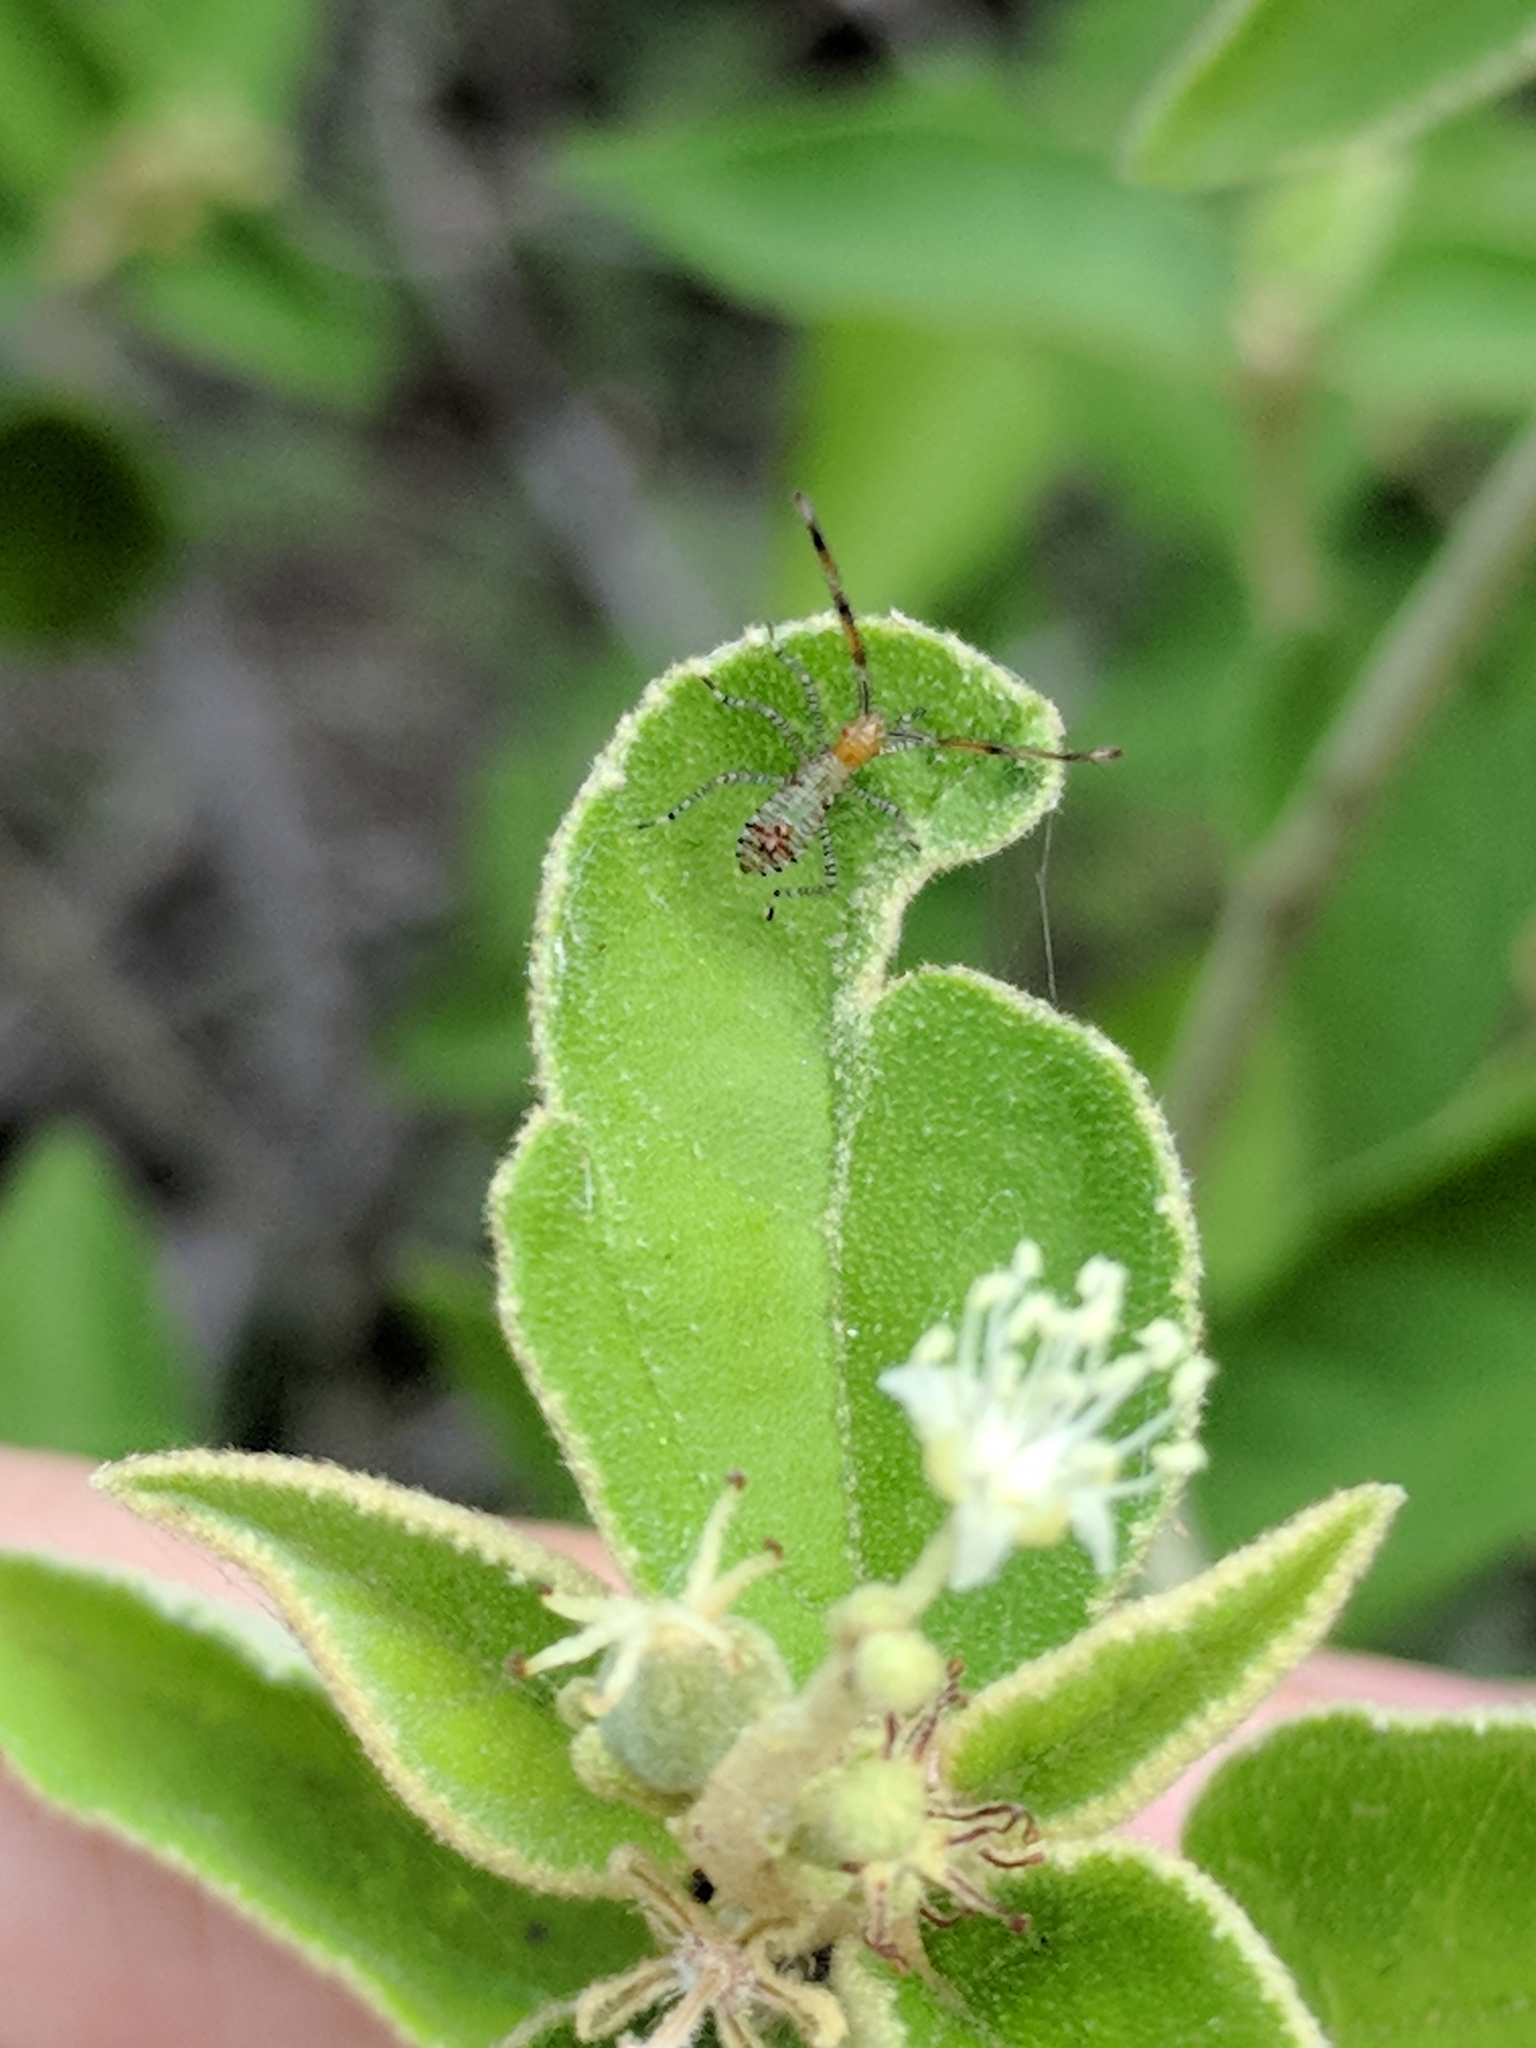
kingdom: Animalia
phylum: Arthropoda
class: Insecta
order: Hemiptera
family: Coreidae
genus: Hypselonotus
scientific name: Hypselonotus punctiventris
